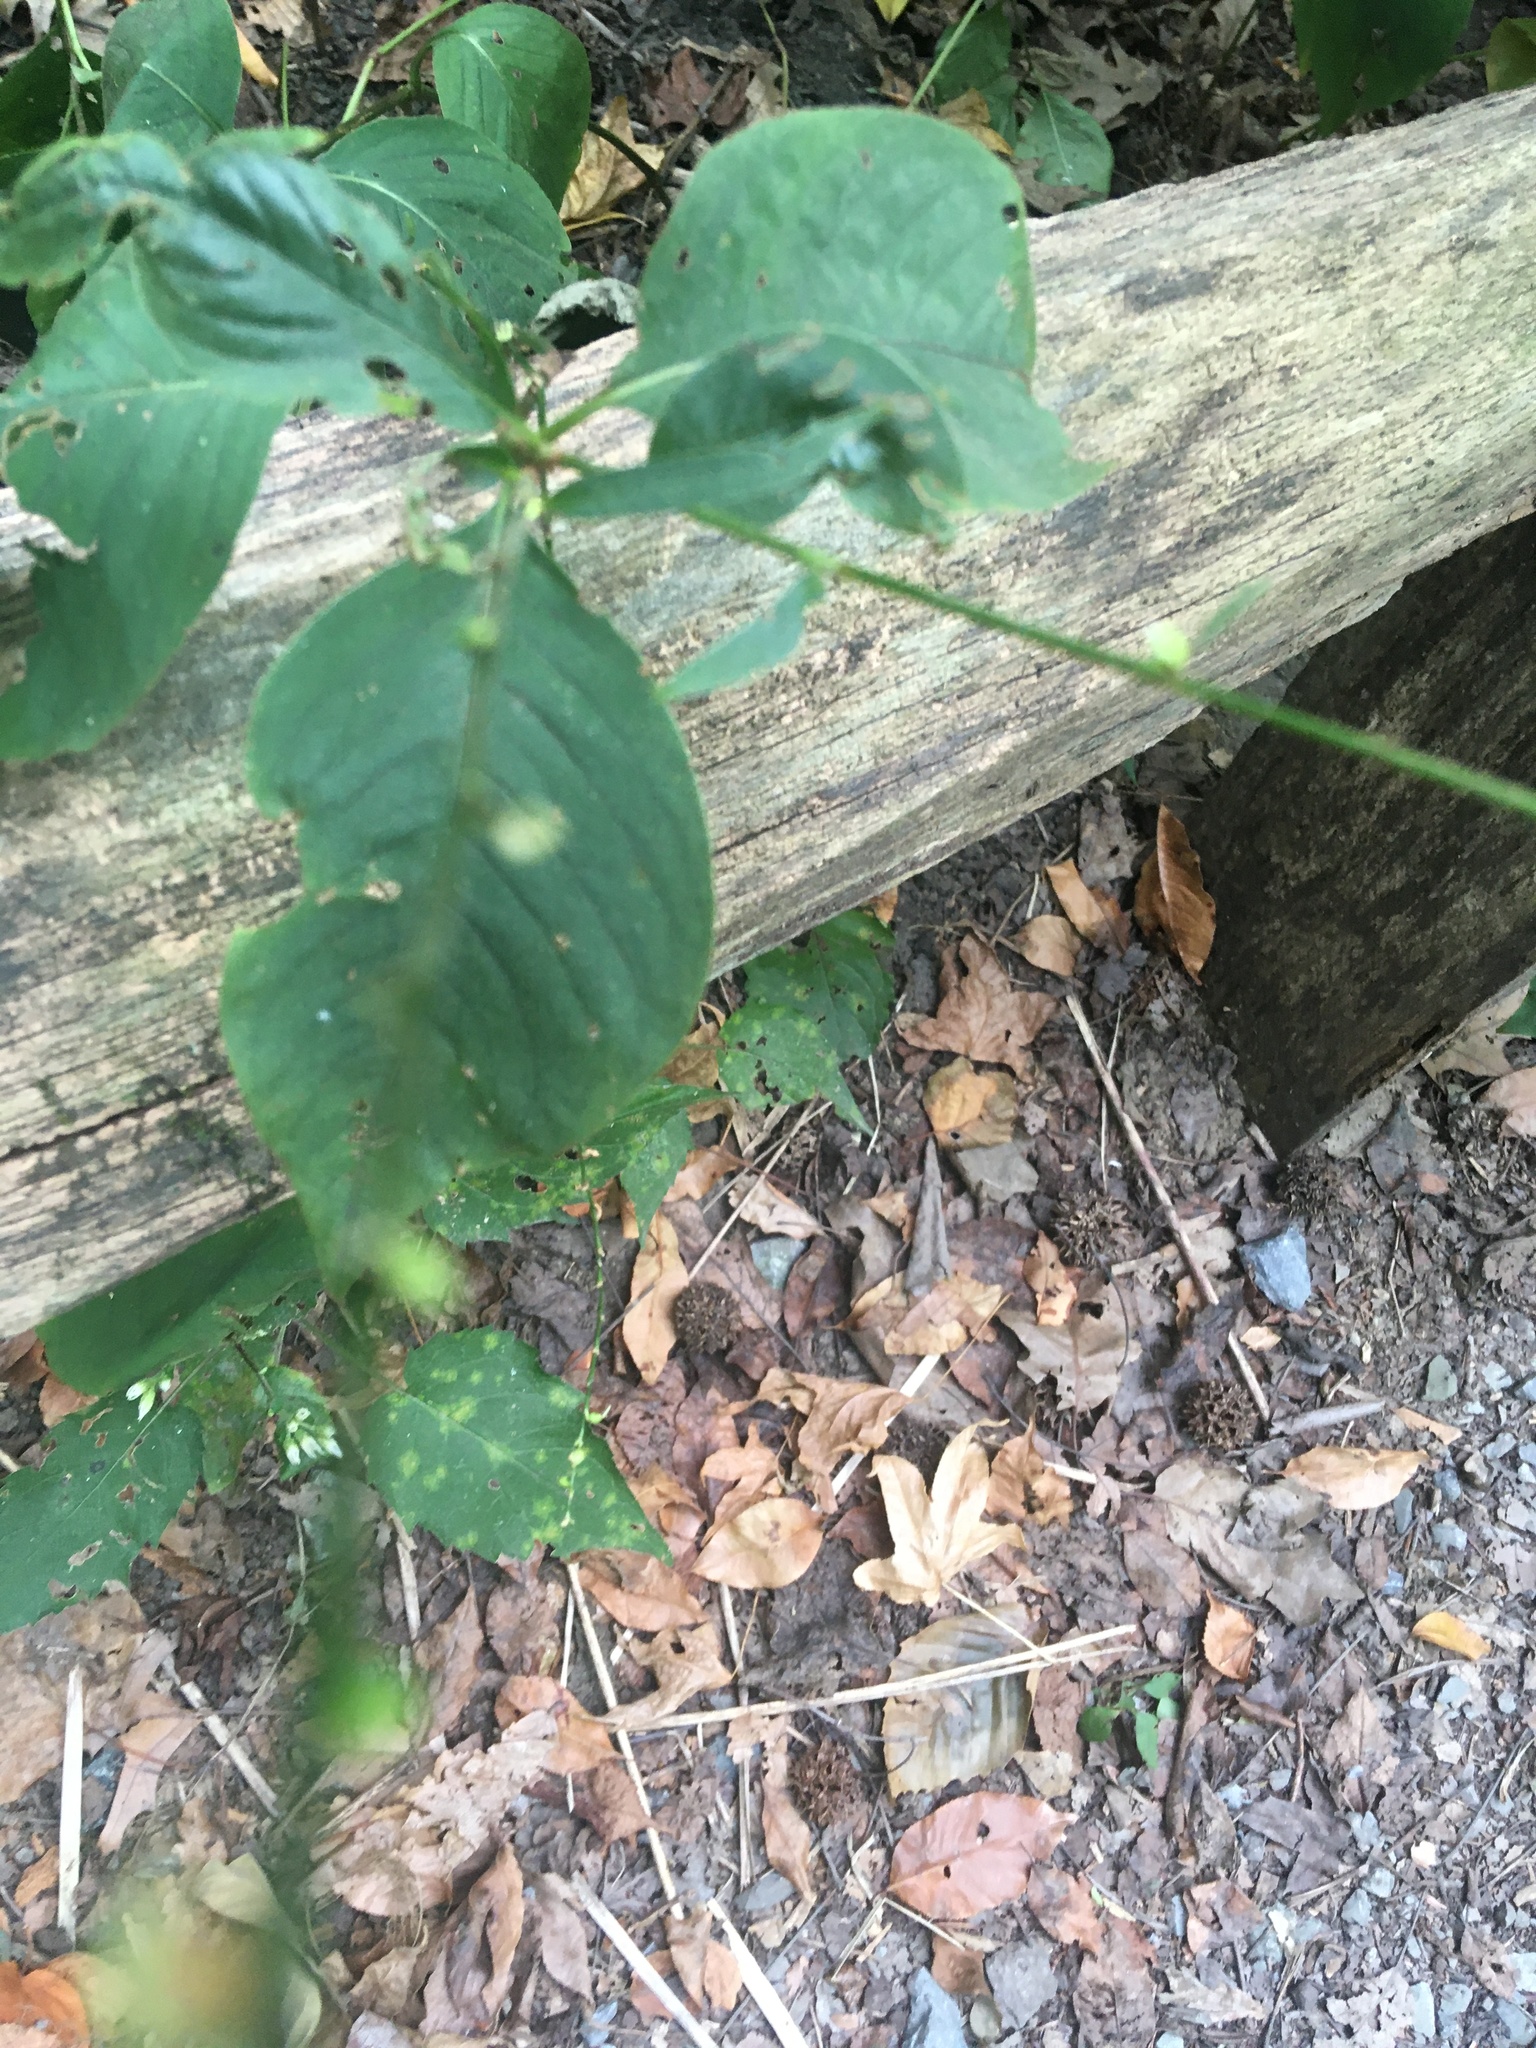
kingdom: Plantae
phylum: Tracheophyta
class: Magnoliopsida
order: Caryophyllales
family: Polygonaceae
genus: Persicaria
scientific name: Persicaria virginiana
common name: Jumpseed
